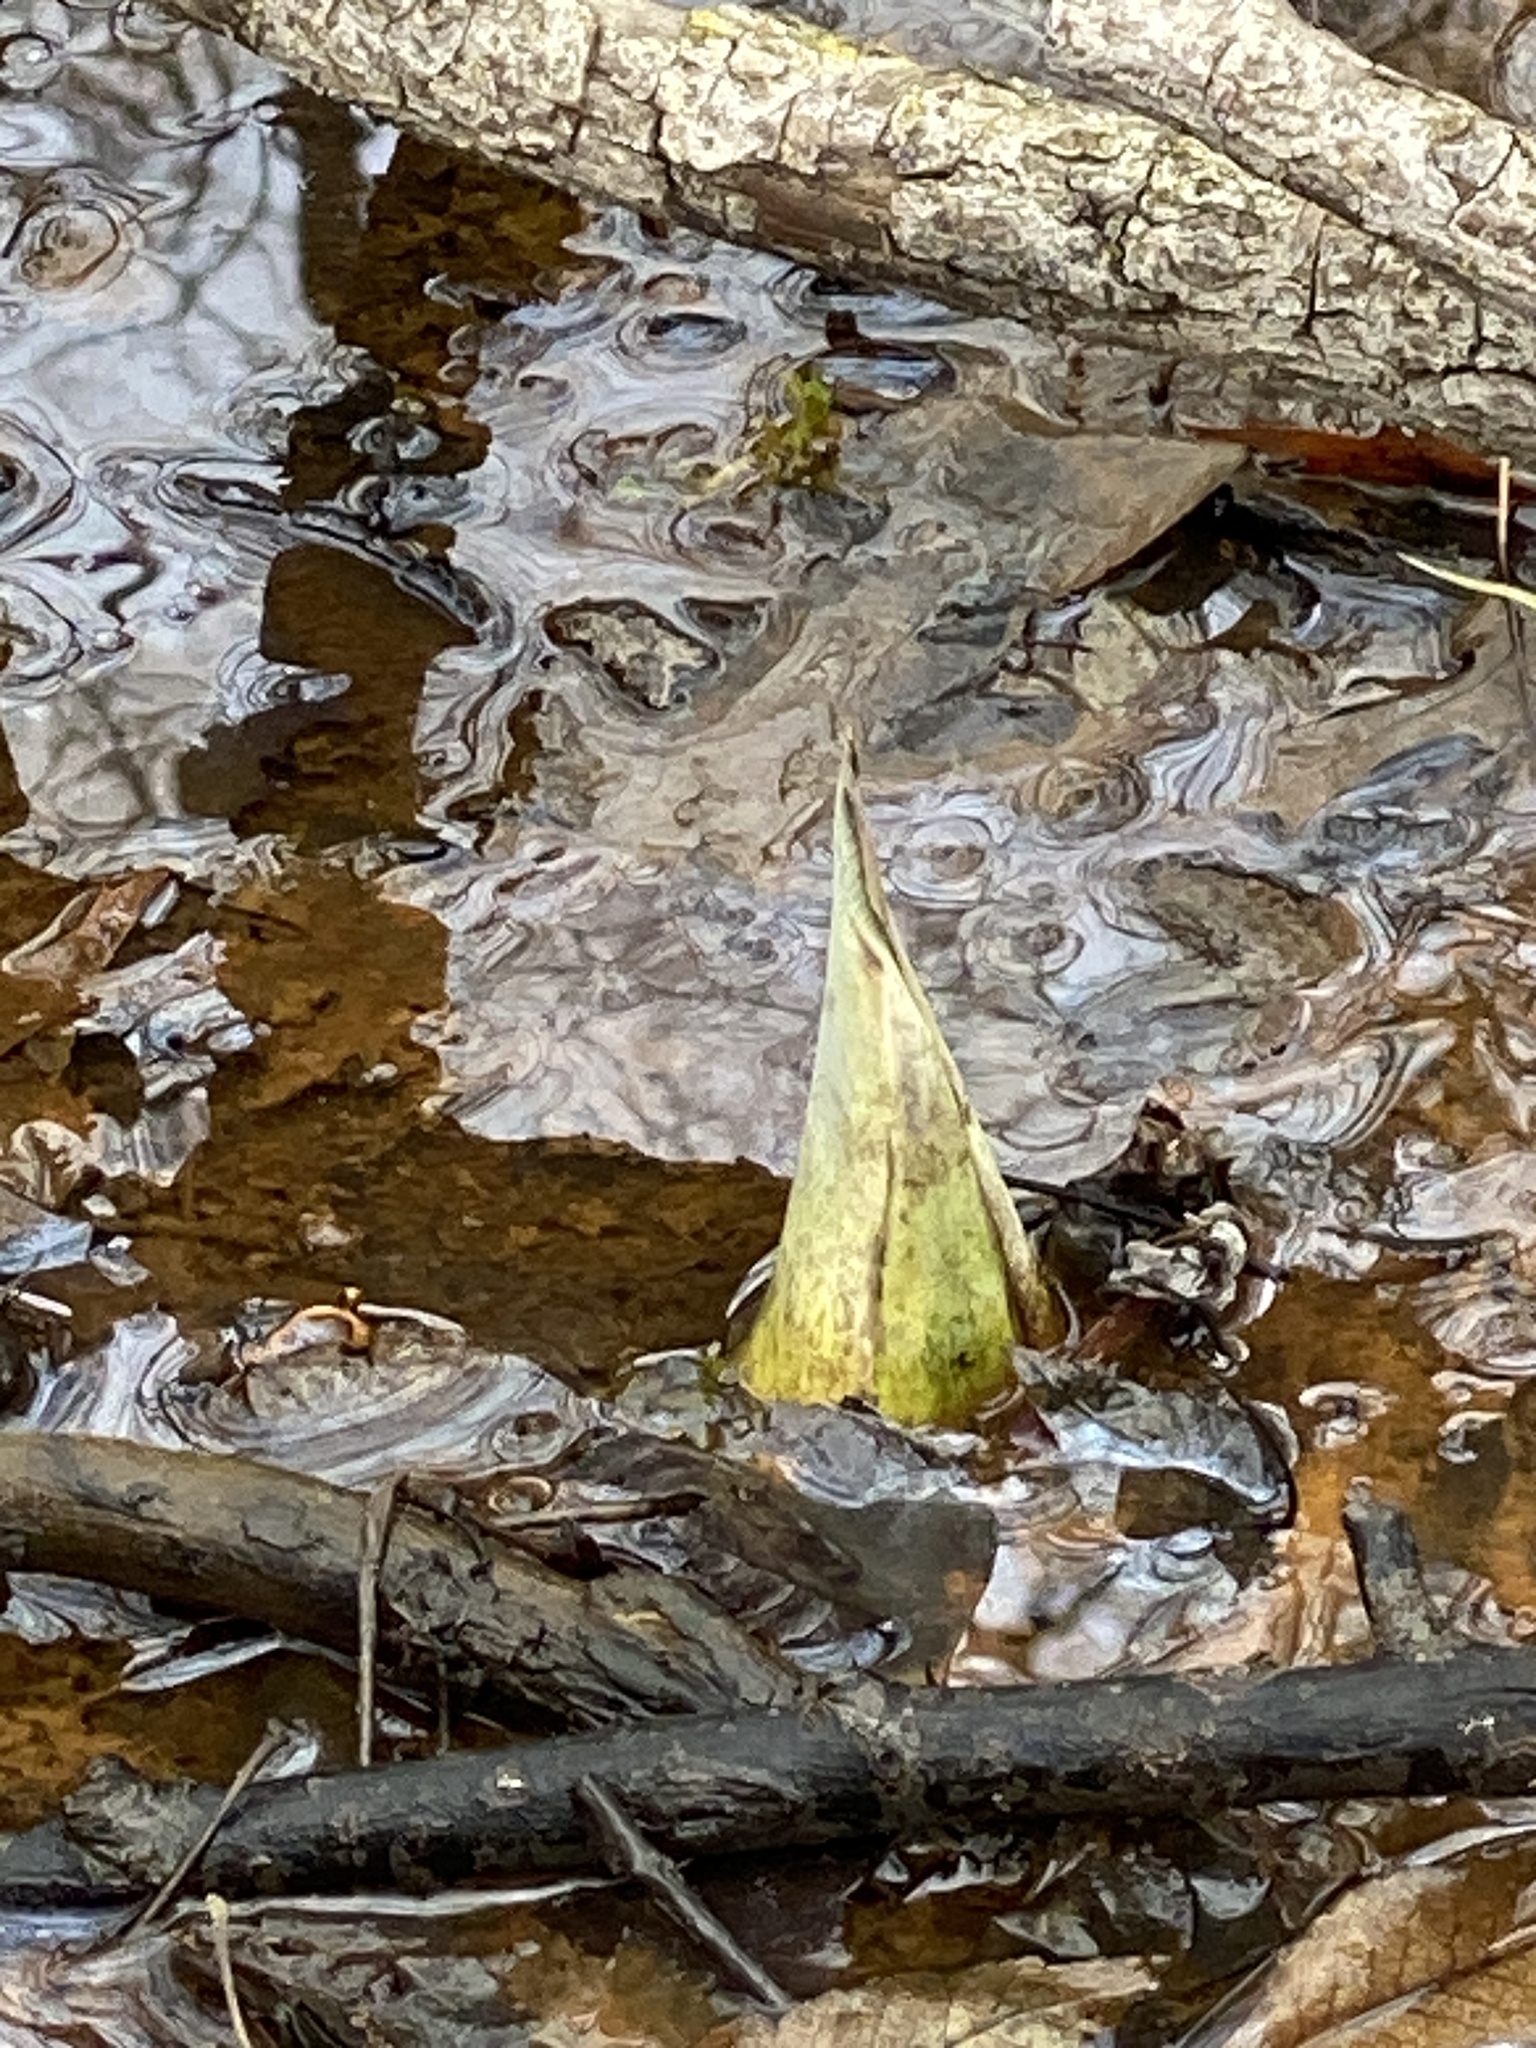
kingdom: Plantae
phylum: Tracheophyta
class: Liliopsida
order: Alismatales
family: Araceae
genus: Symplocarpus
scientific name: Symplocarpus foetidus
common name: Eastern skunk cabbage
